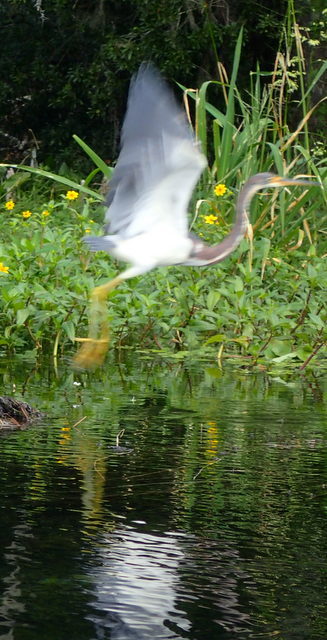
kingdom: Animalia
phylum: Chordata
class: Aves
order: Pelecaniformes
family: Ardeidae
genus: Egretta
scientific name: Egretta tricolor
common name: Tricolored heron
